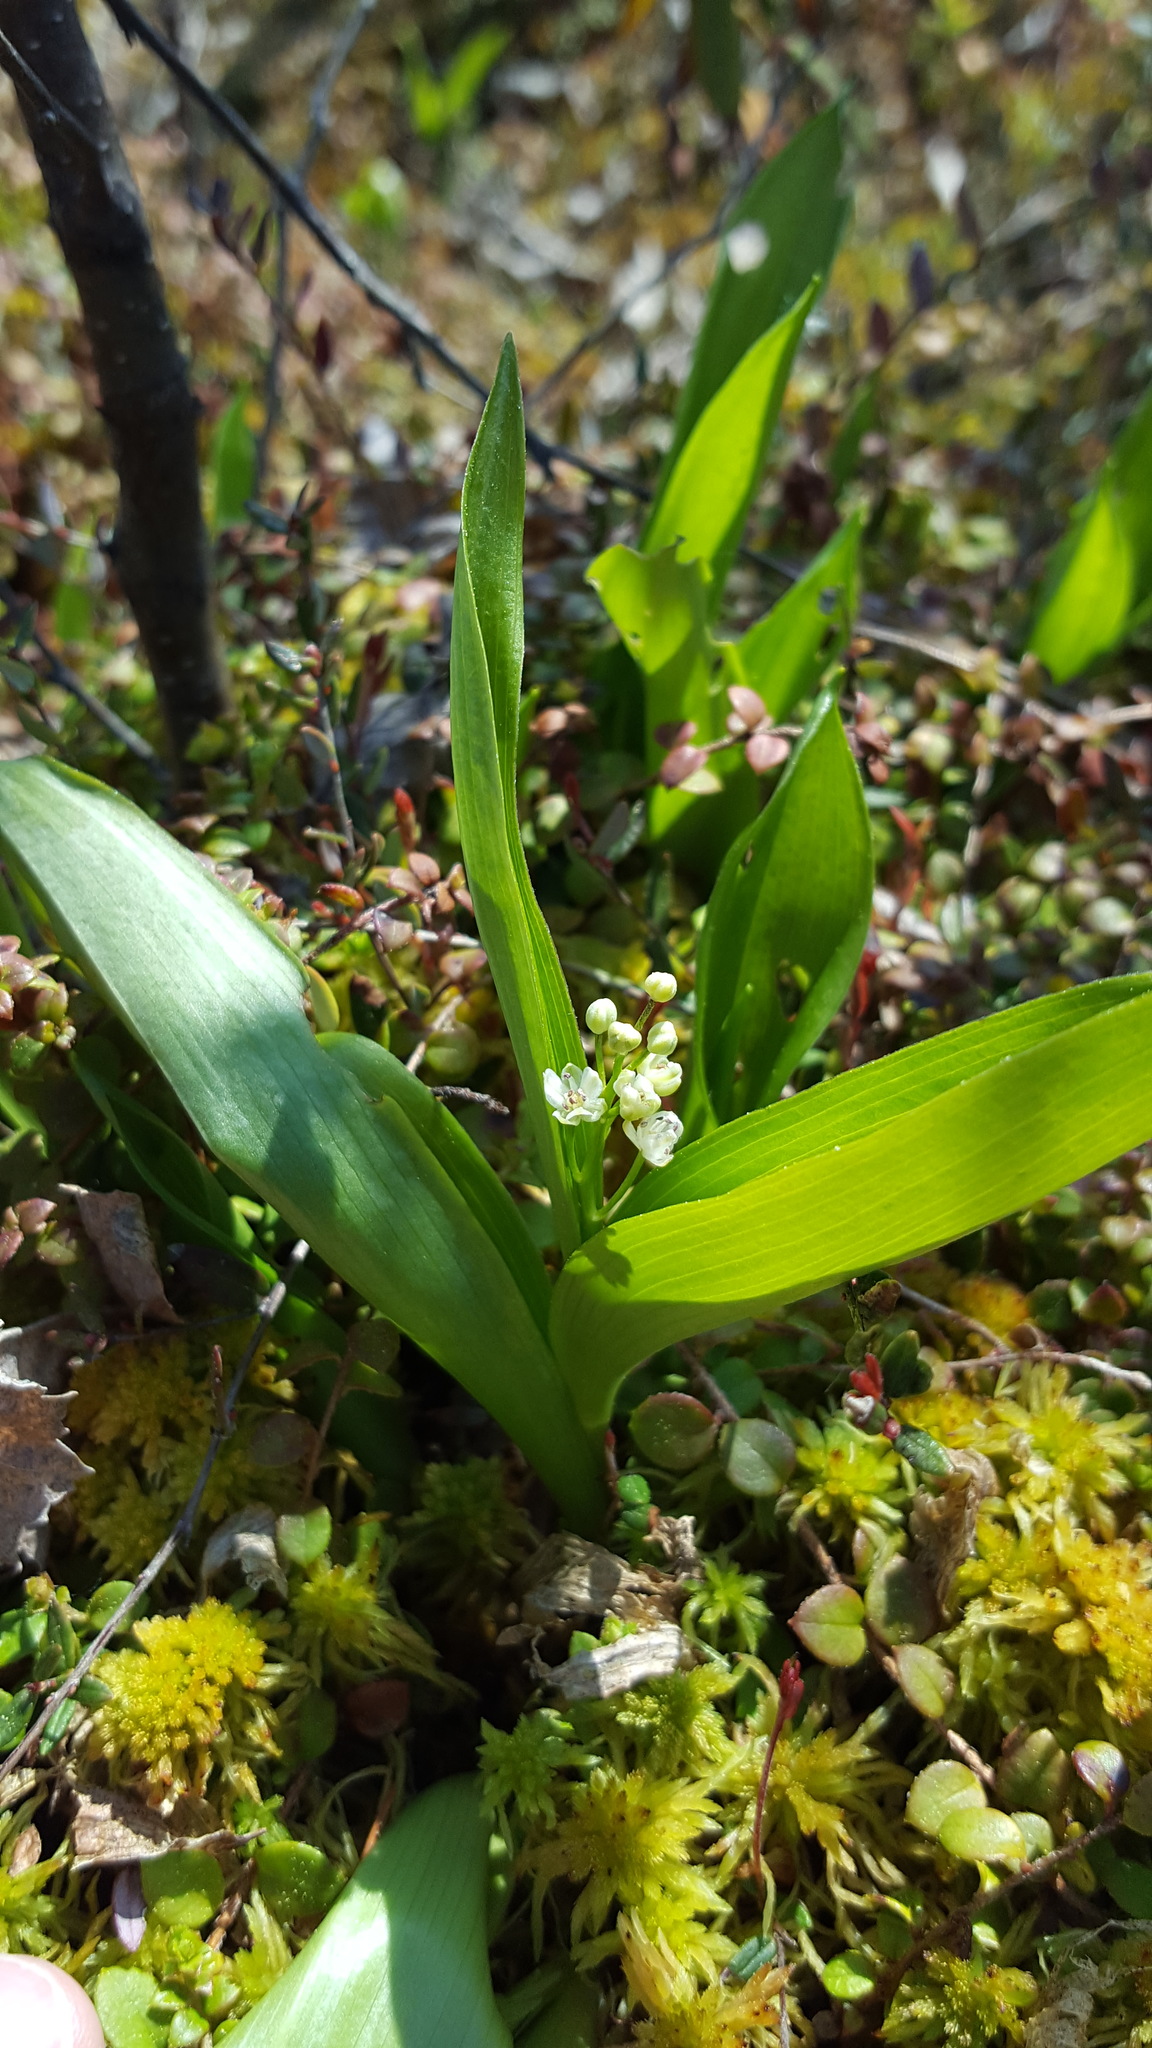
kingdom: Plantae
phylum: Tracheophyta
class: Liliopsida
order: Asparagales
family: Asparagaceae
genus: Maianthemum
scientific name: Maianthemum trifolium
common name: Swamp false solomon's seal
